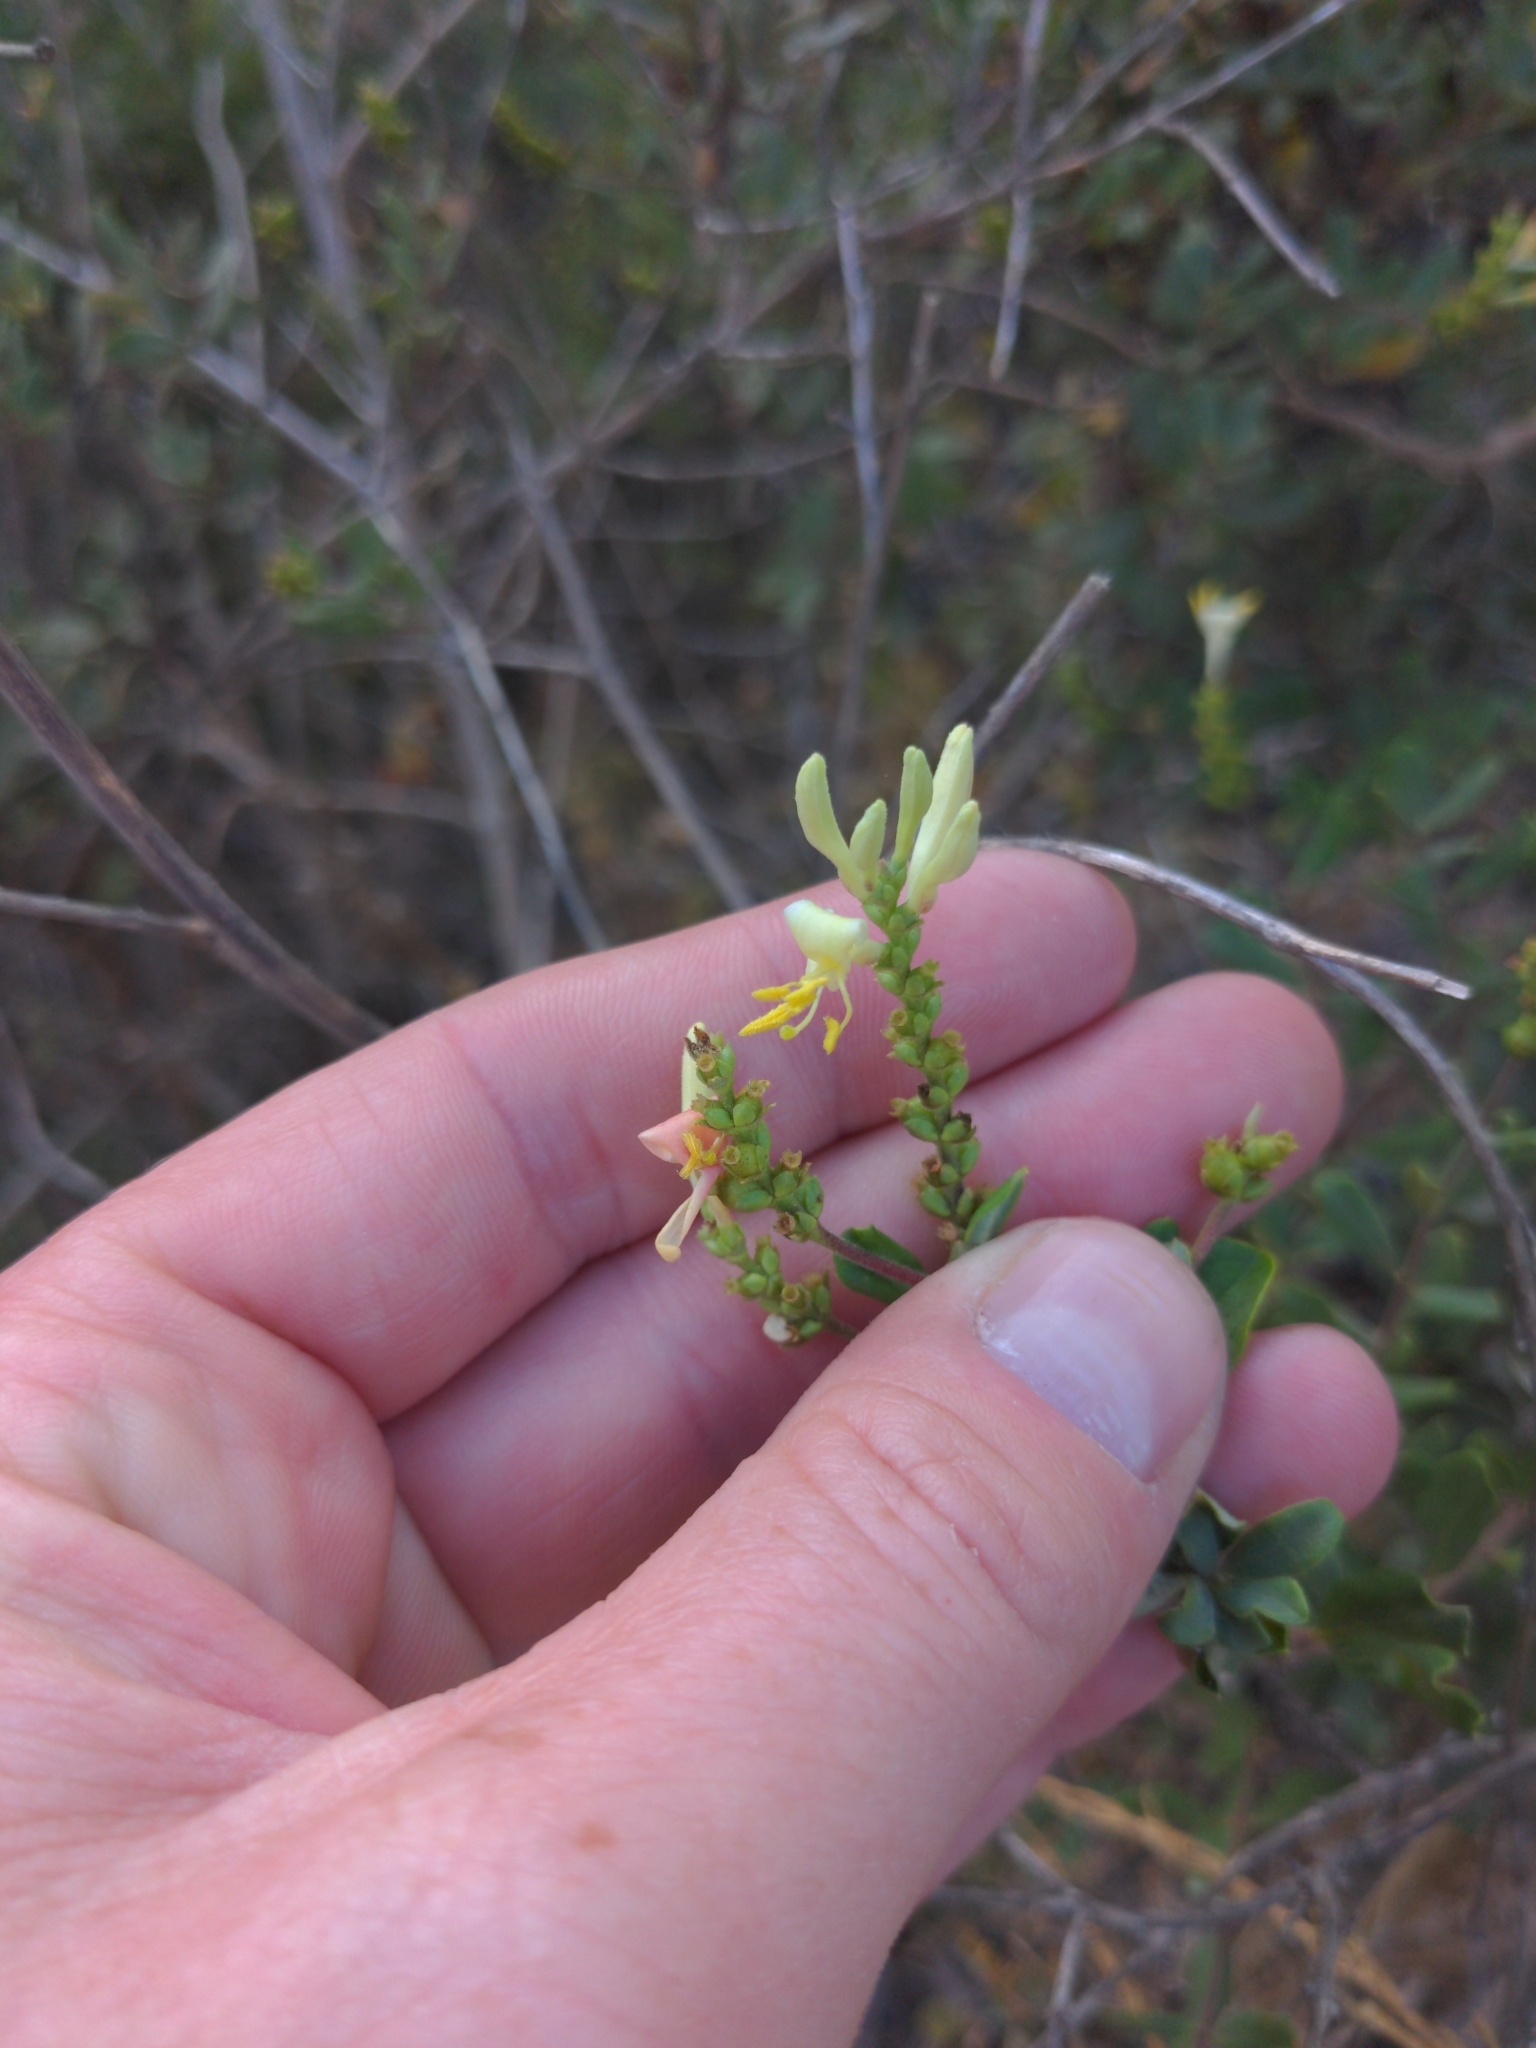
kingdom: Plantae
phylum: Tracheophyta
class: Magnoliopsida
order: Dipsacales
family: Caprifoliaceae
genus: Lonicera
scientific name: Lonicera subspicata
